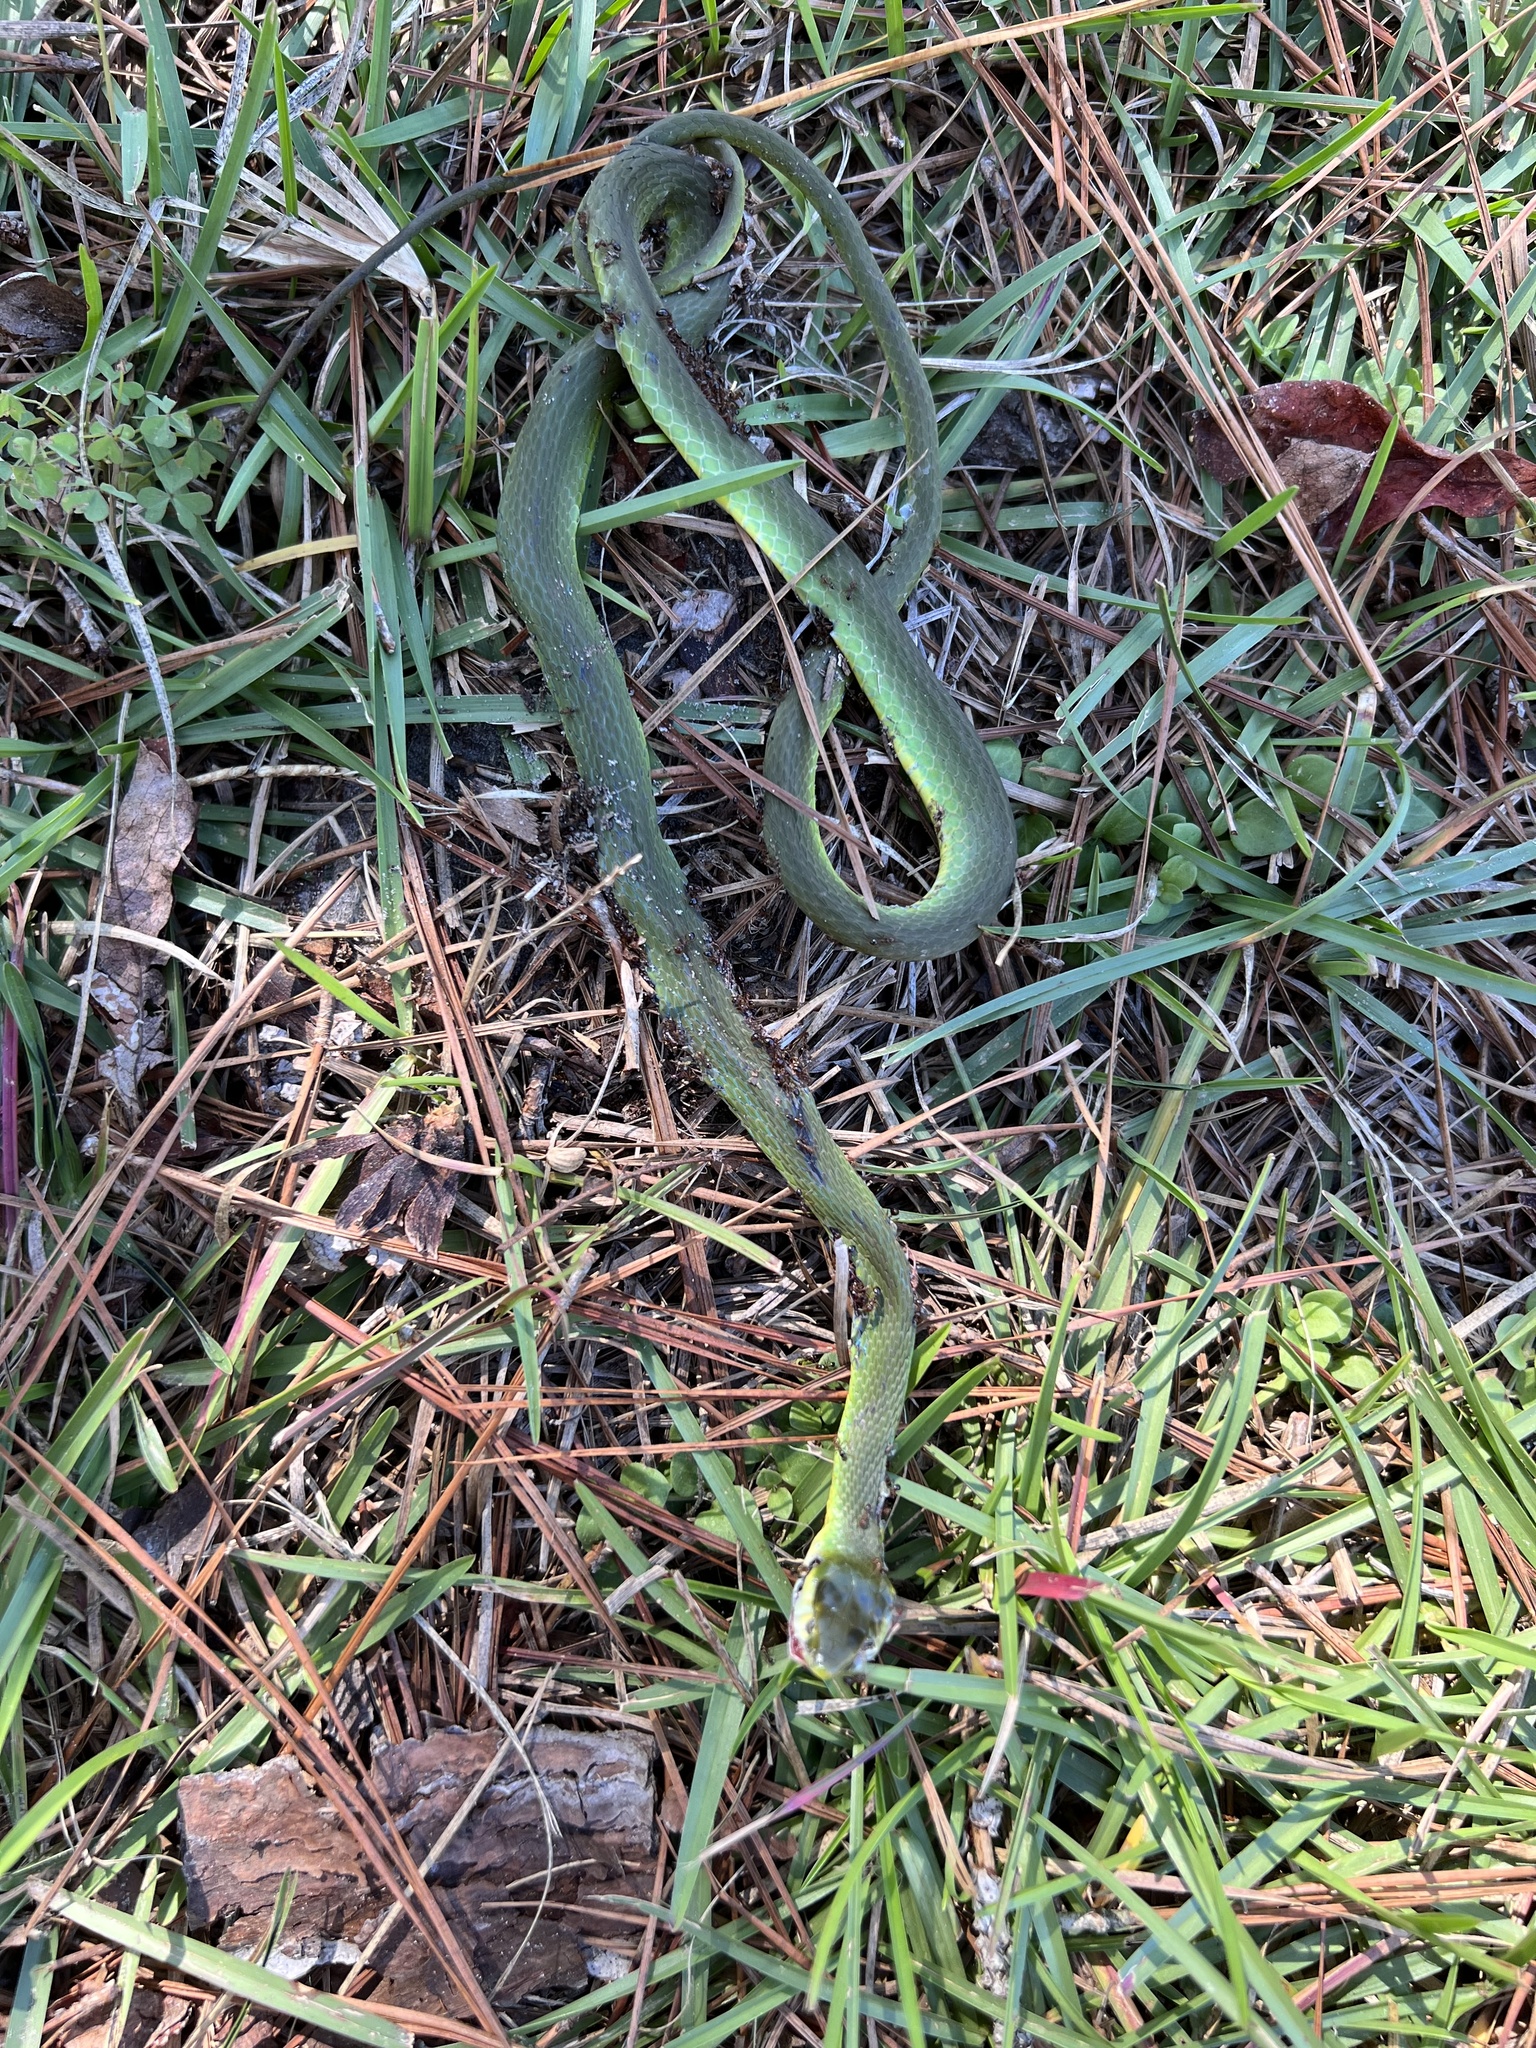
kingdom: Animalia
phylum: Chordata
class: Squamata
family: Colubridae
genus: Opheodrys
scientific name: Opheodrys aestivus
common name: Rough greensnake
